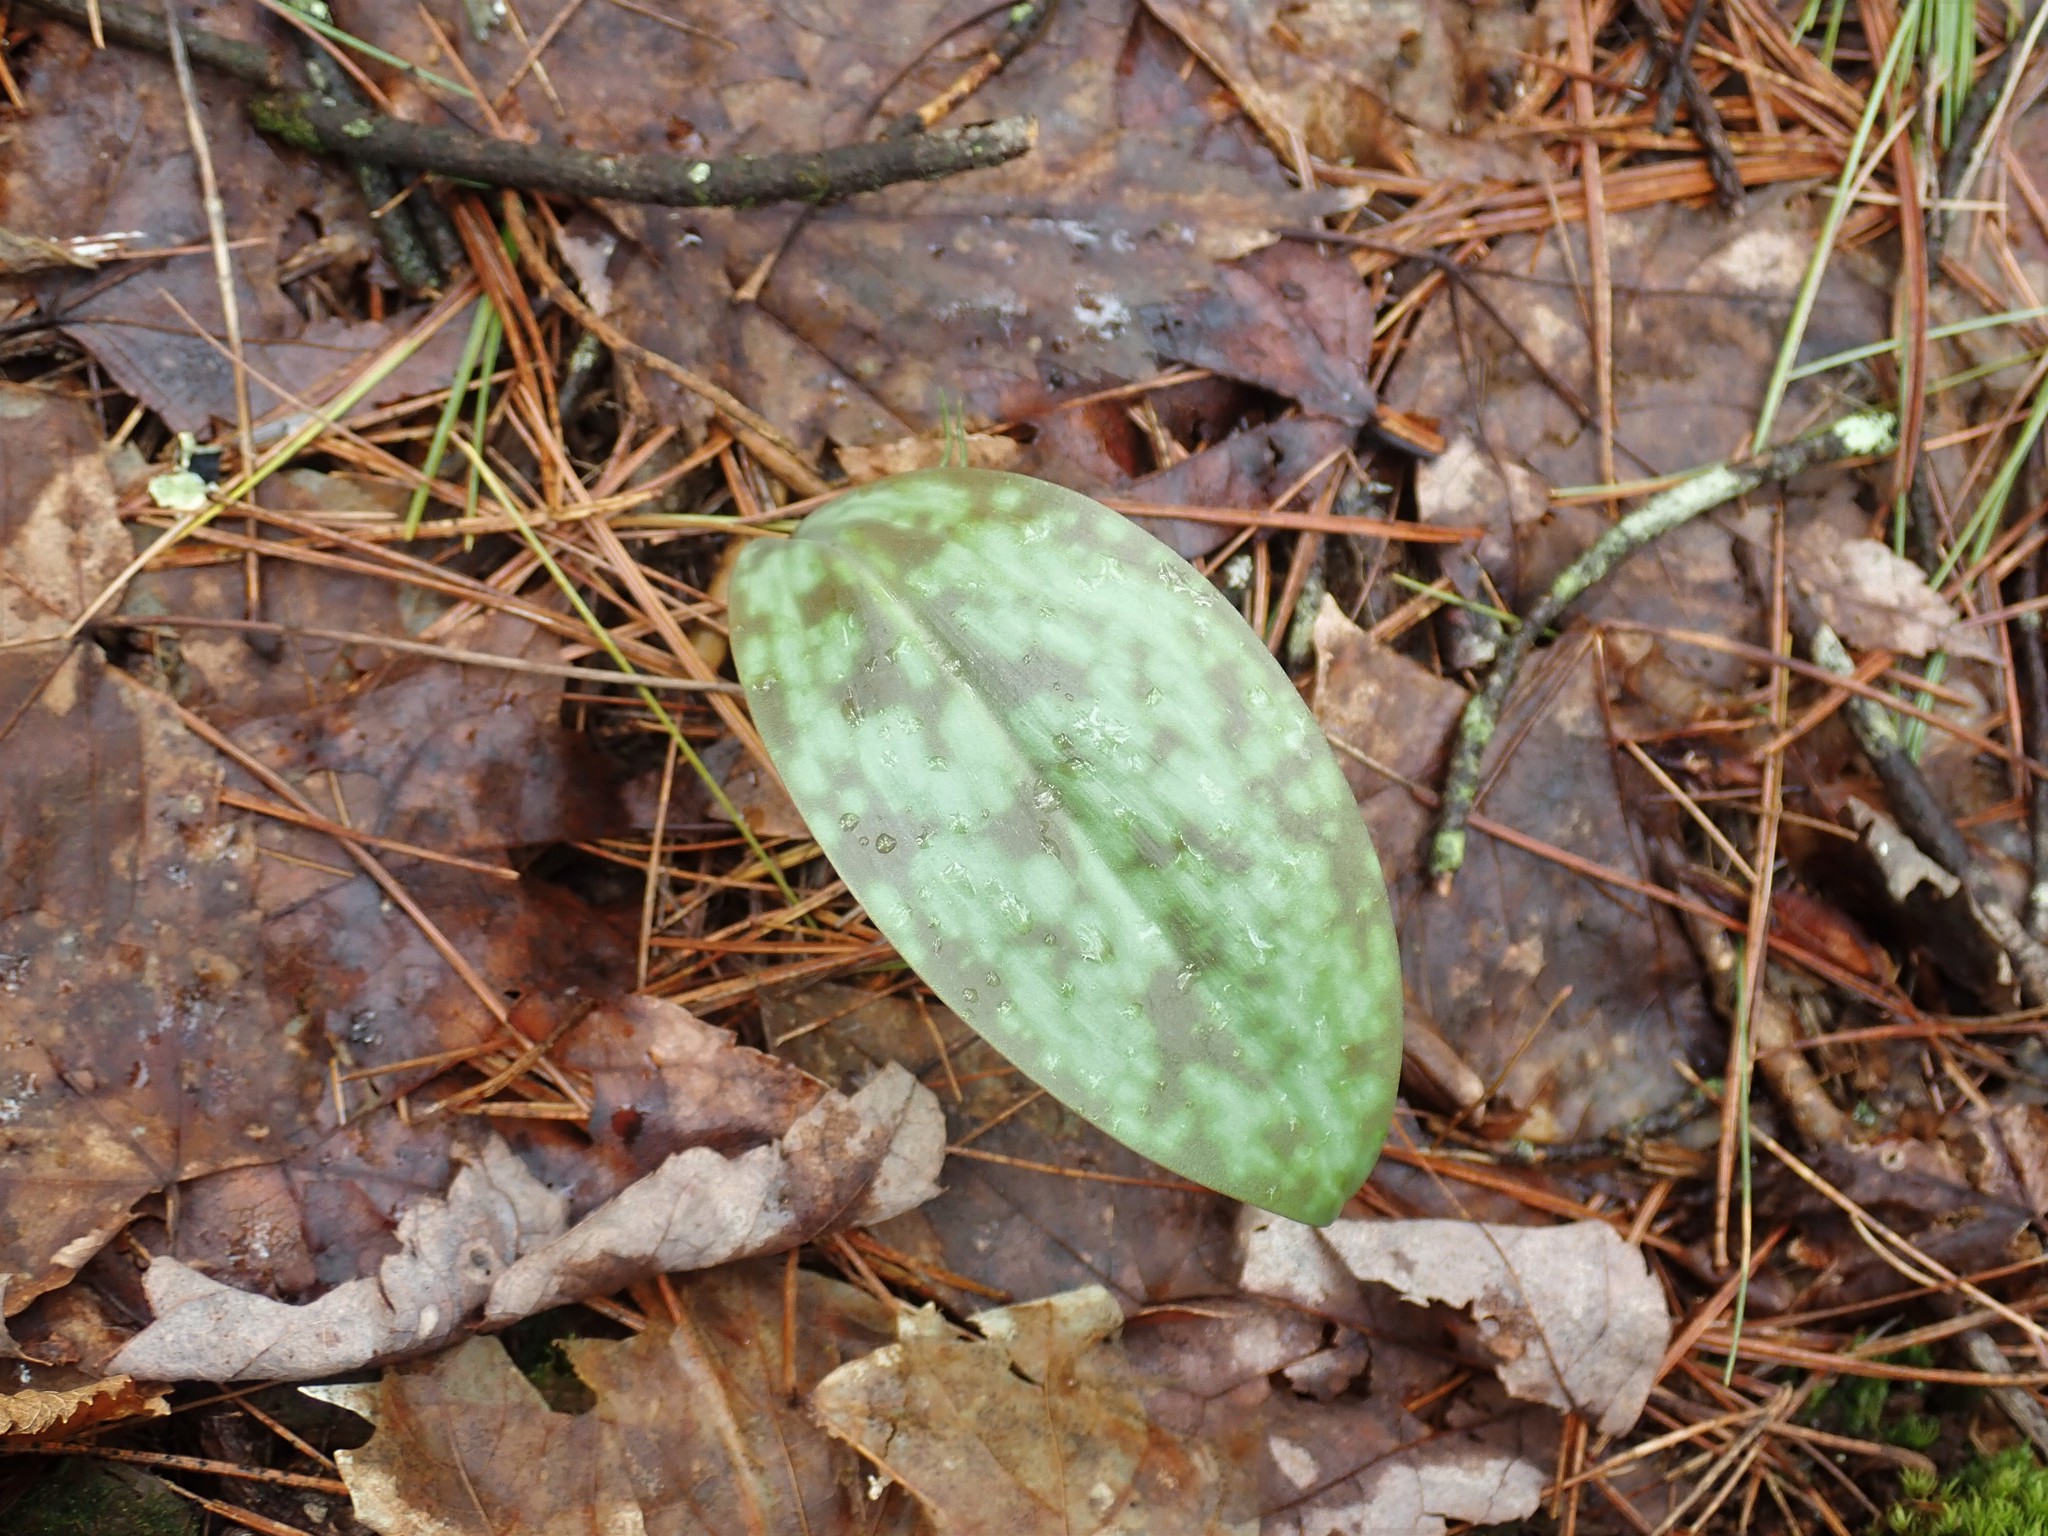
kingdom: Plantae
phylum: Tracheophyta
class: Liliopsida
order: Liliales
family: Liliaceae
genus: Erythronium
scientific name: Erythronium americanum
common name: Yellow adder's-tongue
